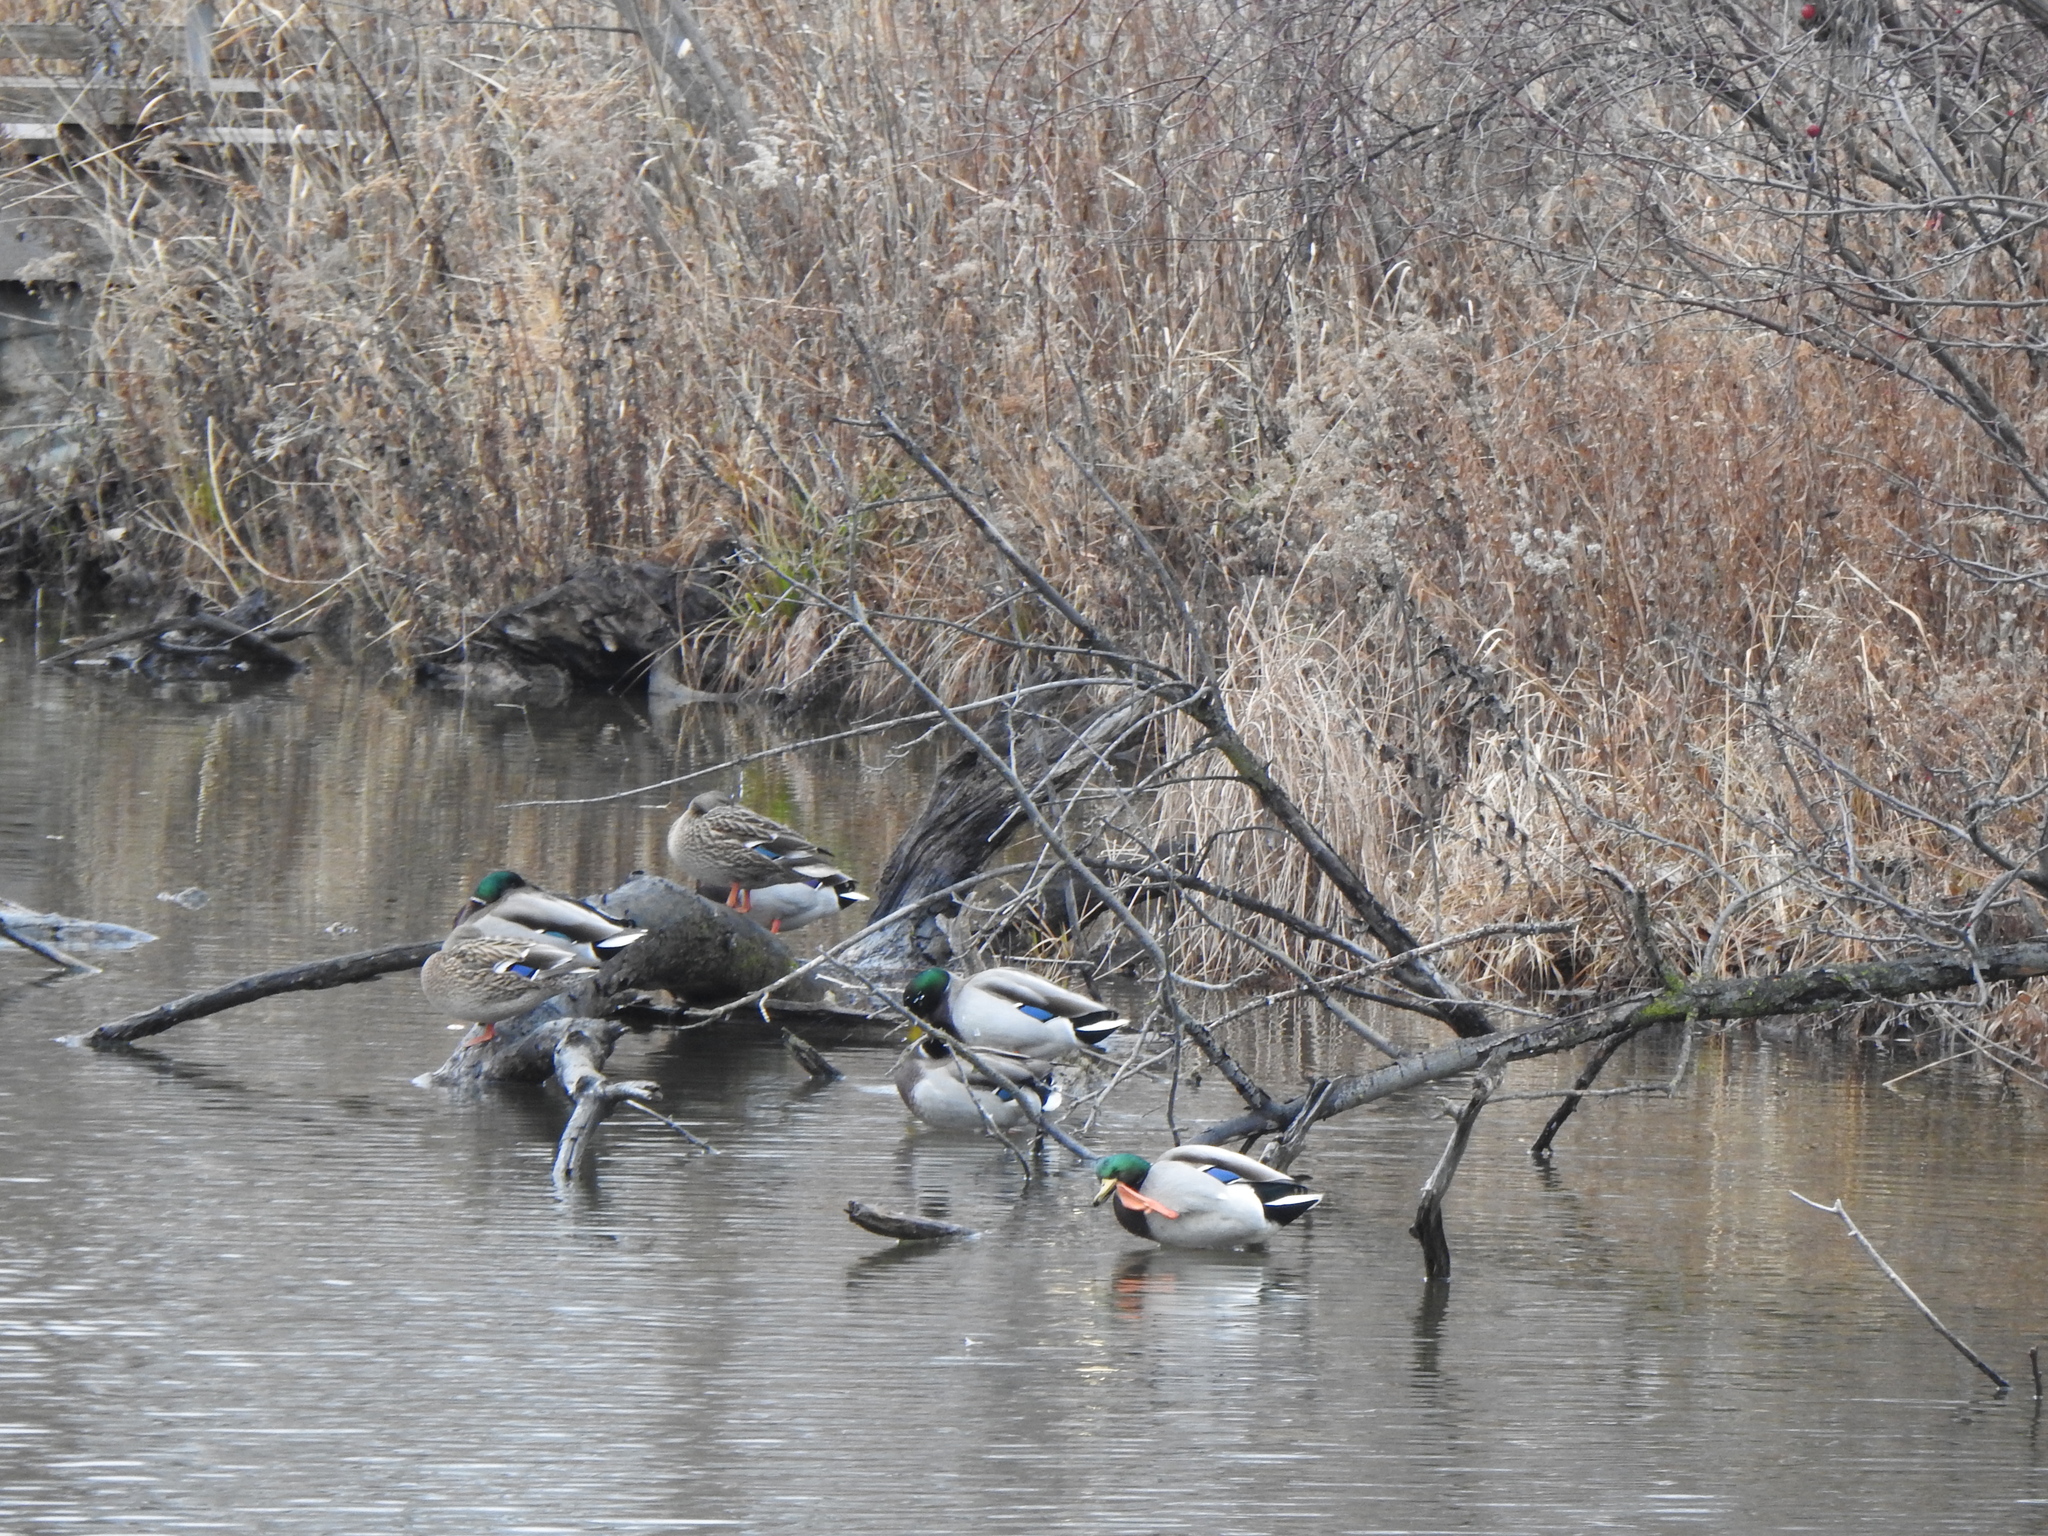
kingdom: Animalia
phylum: Chordata
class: Aves
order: Anseriformes
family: Anatidae
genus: Anas
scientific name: Anas platyrhynchos
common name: Mallard
